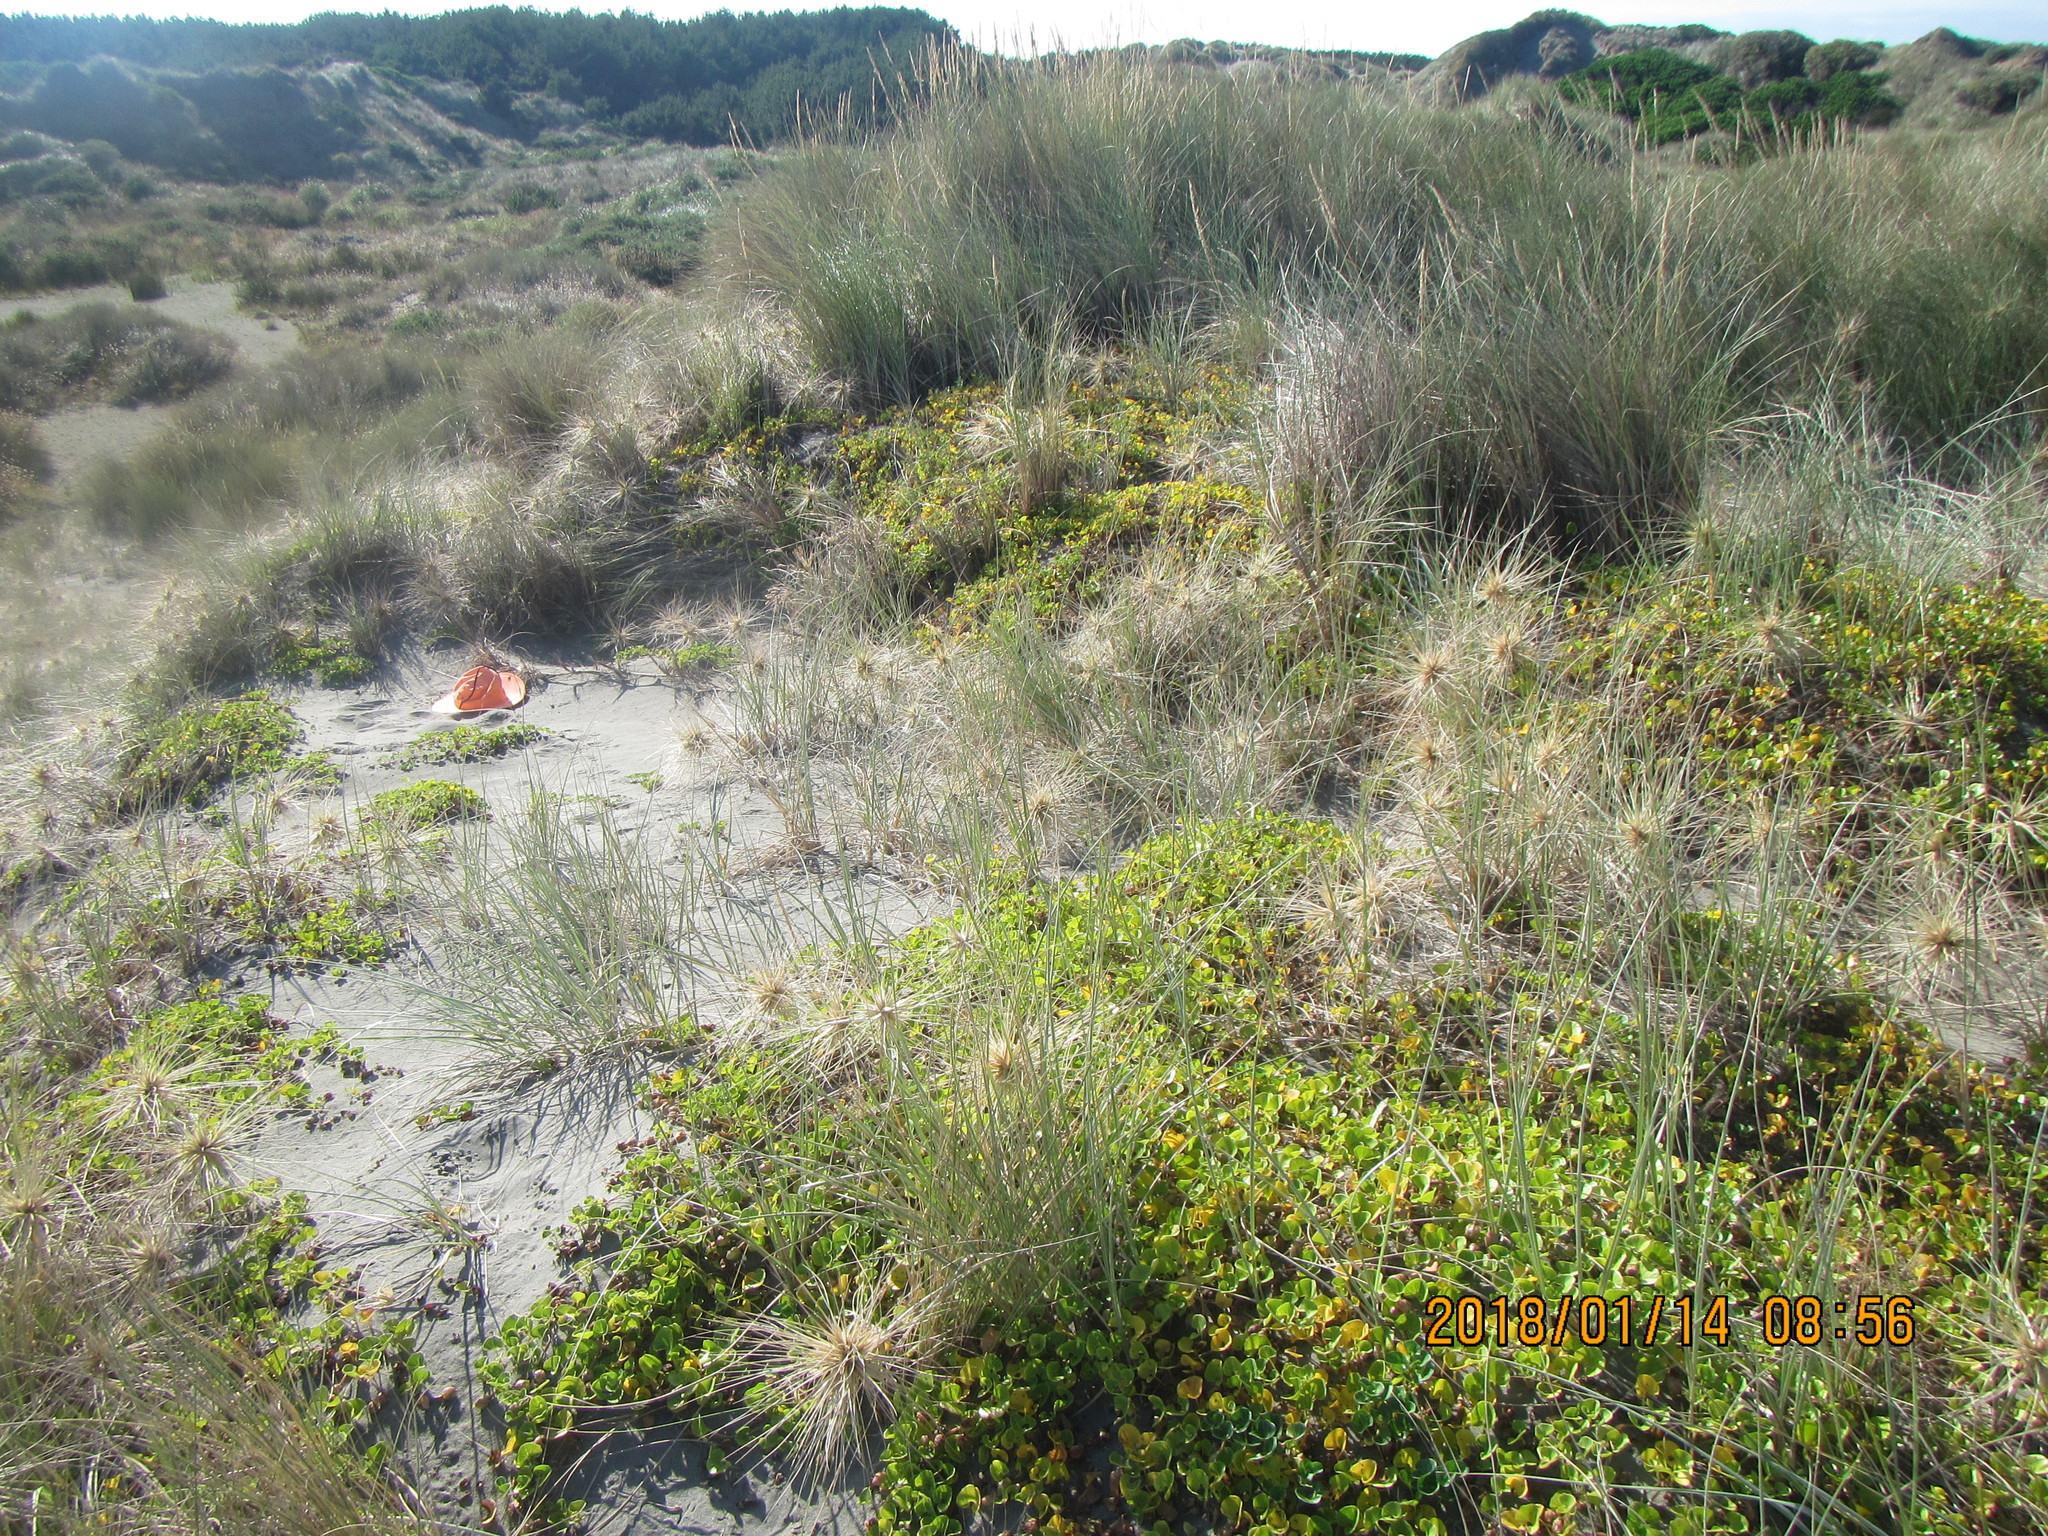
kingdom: Plantae
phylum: Tracheophyta
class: Magnoliopsida
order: Solanales
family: Convolvulaceae
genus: Calystegia
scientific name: Calystegia soldanella
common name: Sea bindweed
